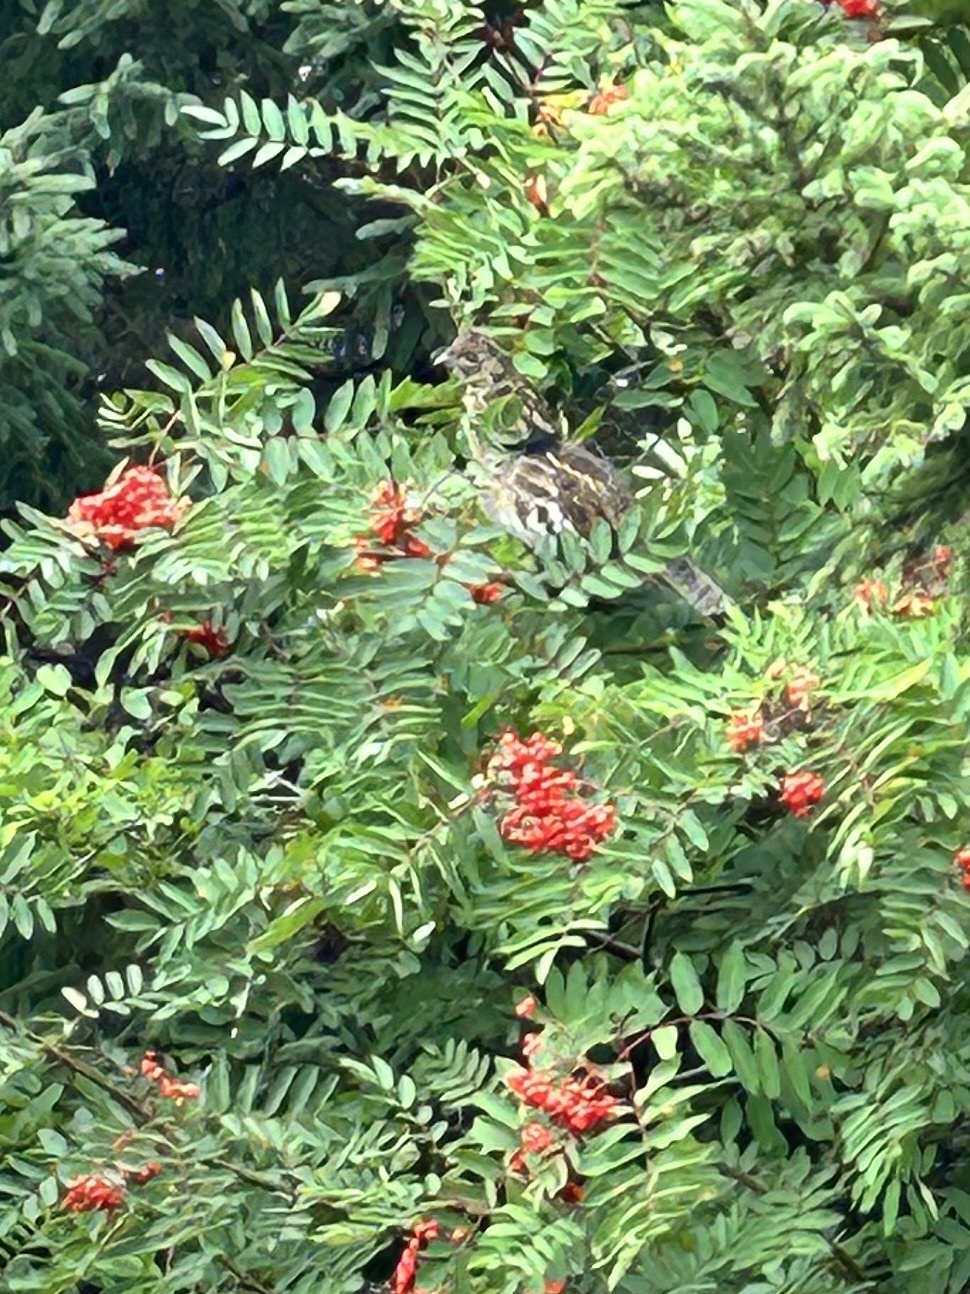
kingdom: Animalia
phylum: Chordata
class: Aves
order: Galliformes
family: Phasianidae
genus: Bonasa
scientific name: Bonasa umbellus
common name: Ruffed grouse
